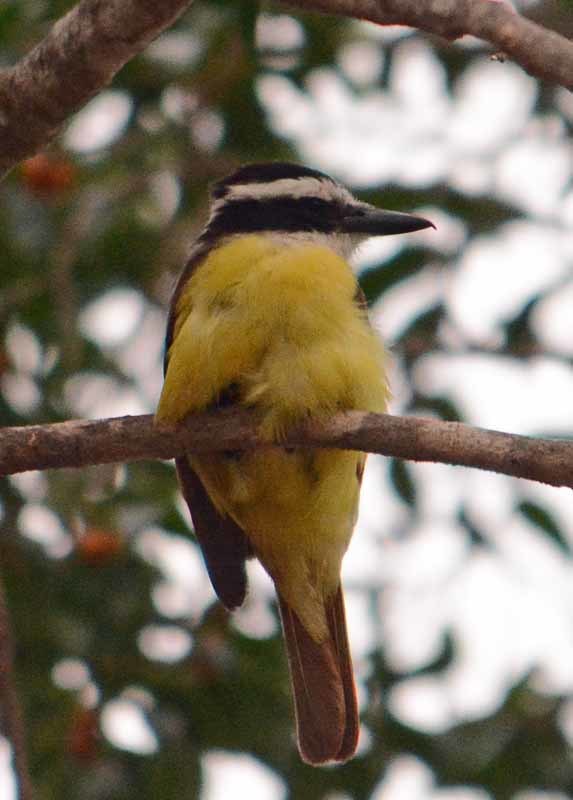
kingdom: Animalia
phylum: Chordata
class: Aves
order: Passeriformes
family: Tyrannidae
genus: Pitangus
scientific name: Pitangus sulphuratus
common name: Great kiskadee
